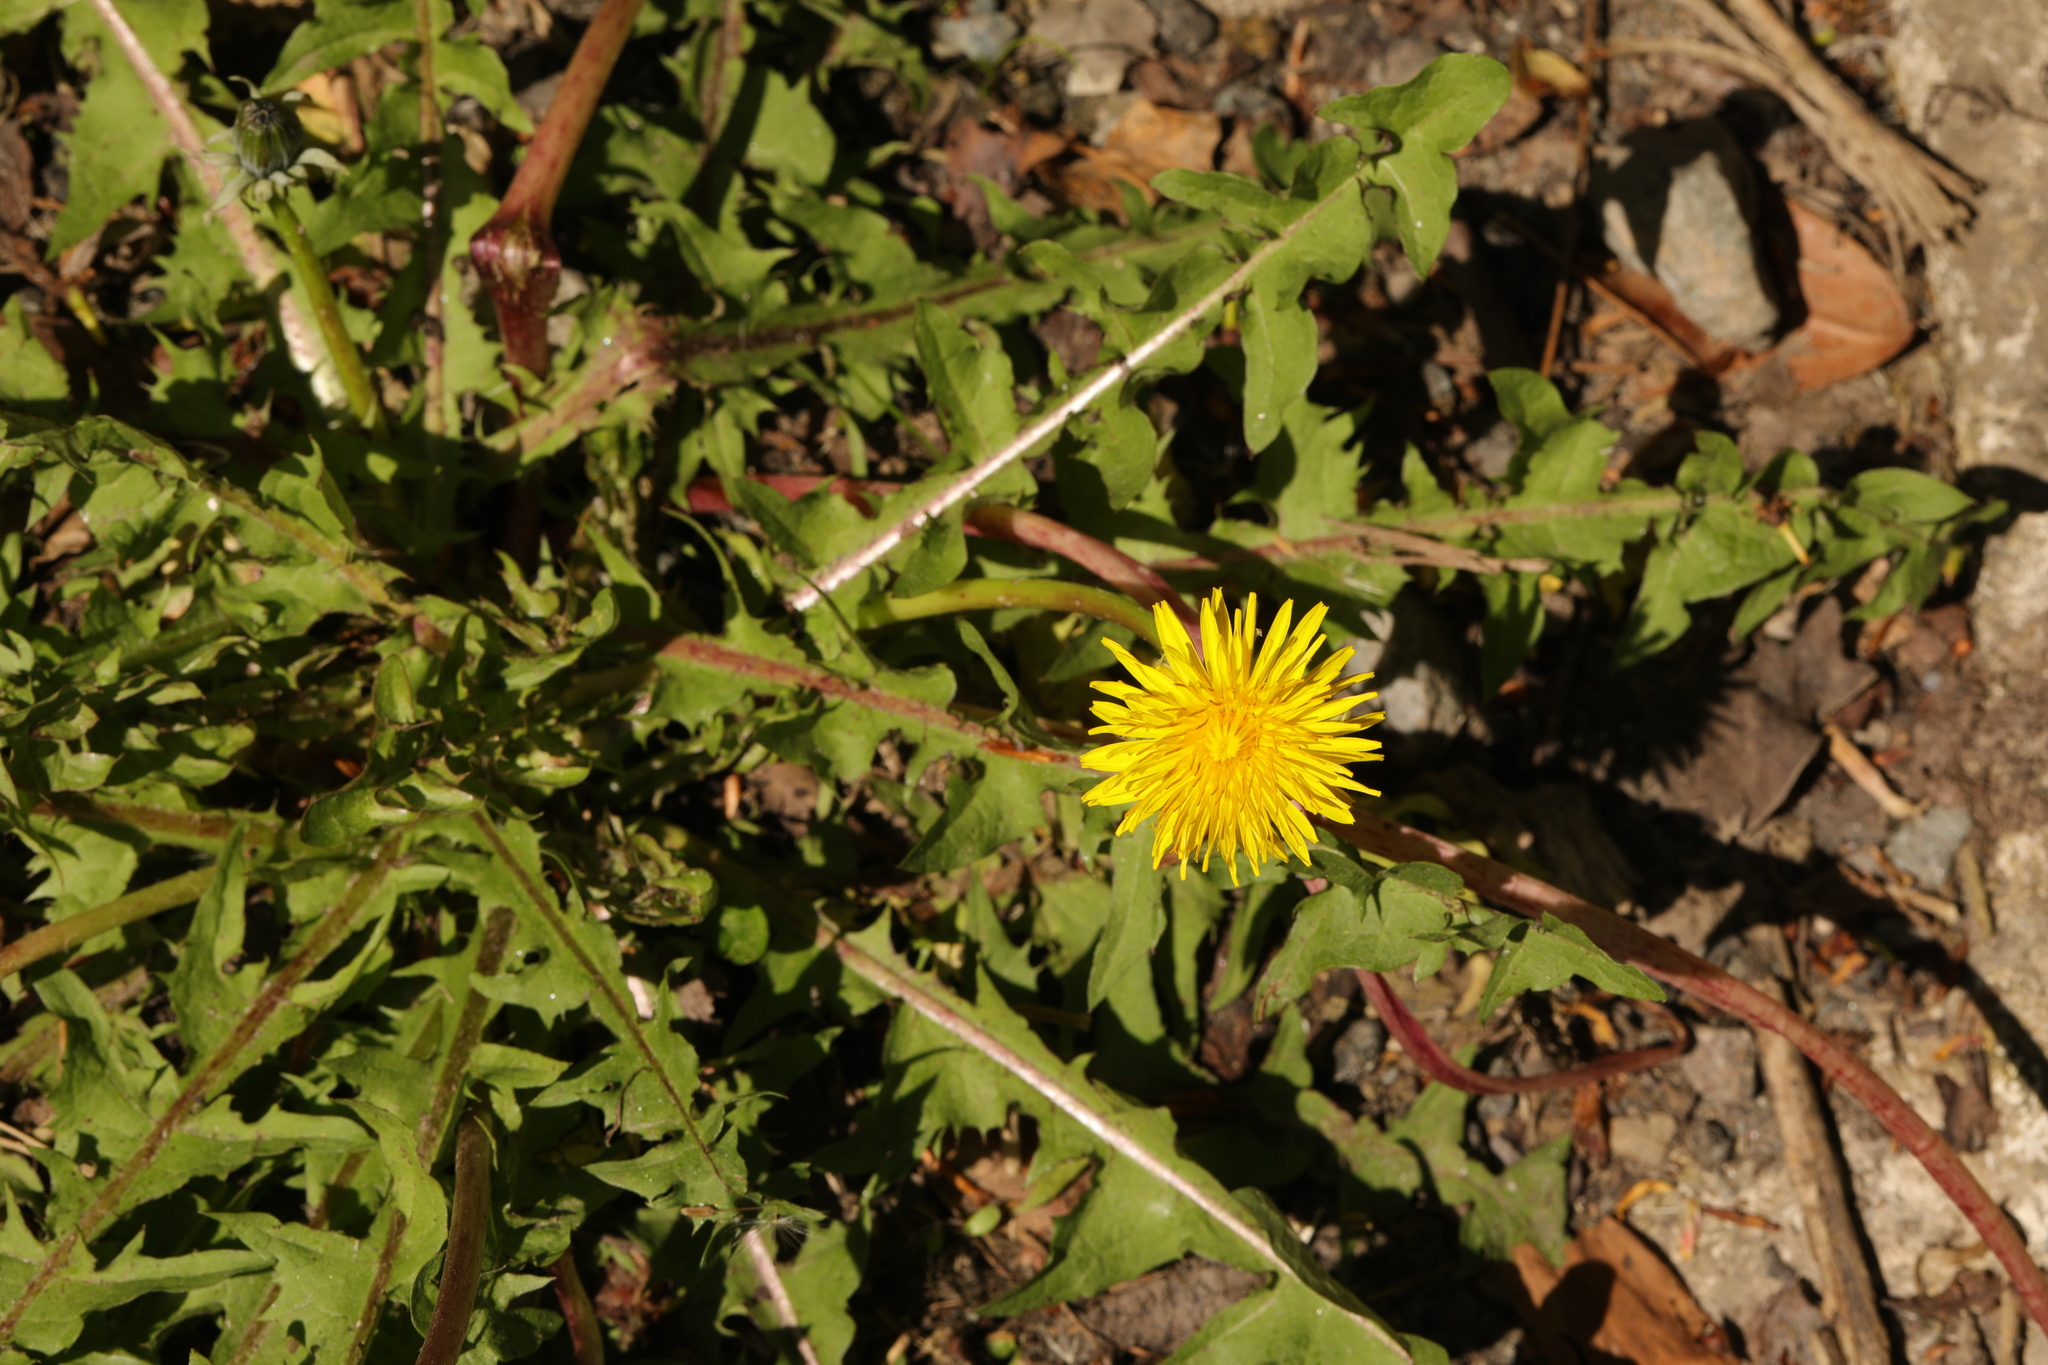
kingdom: Plantae
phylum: Tracheophyta
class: Magnoliopsida
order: Asterales
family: Asteraceae
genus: Taraxacum
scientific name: Taraxacum officinale
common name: Common dandelion
